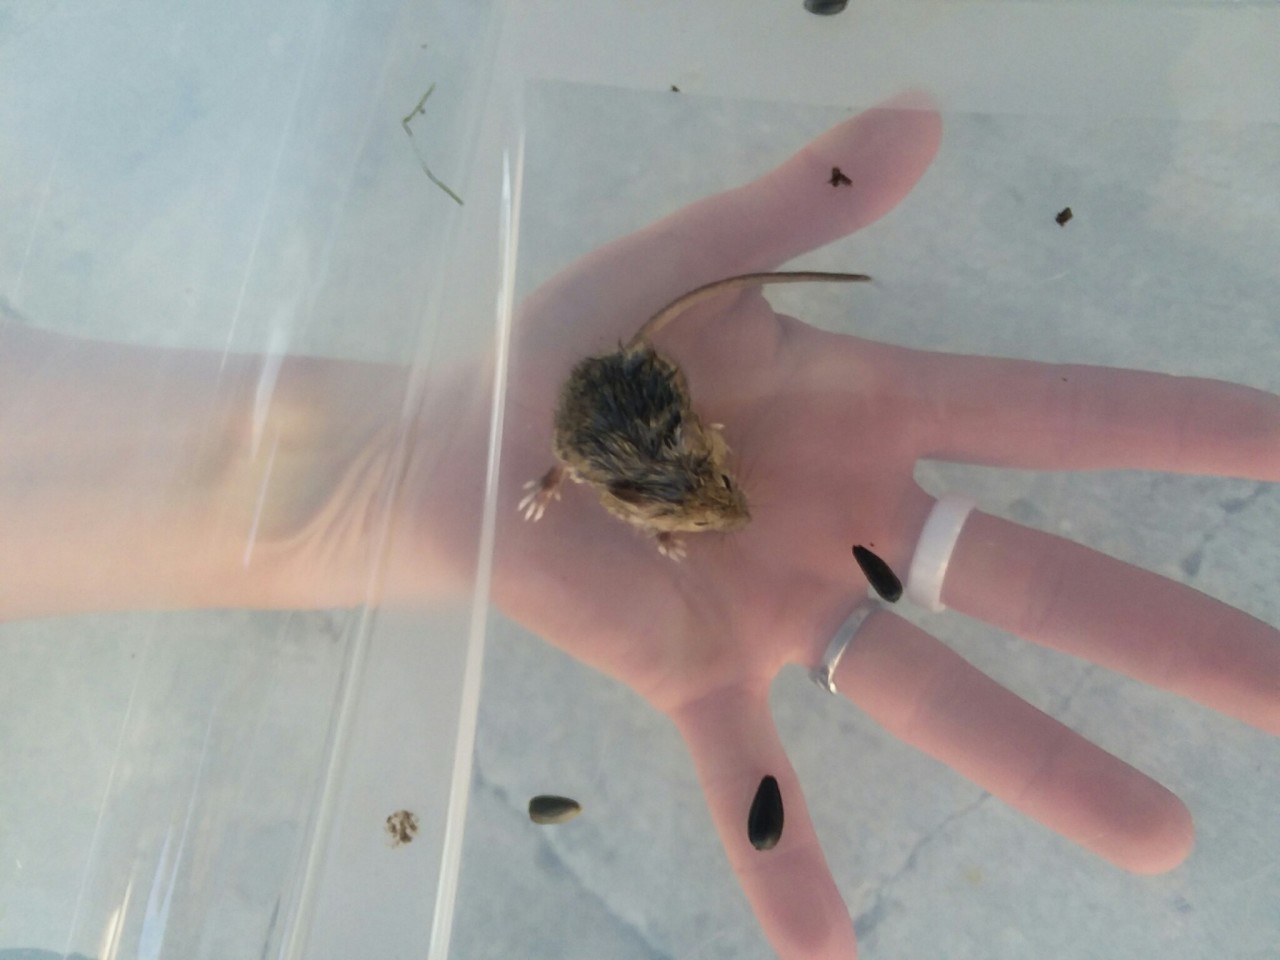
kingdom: Animalia
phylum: Chordata
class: Mammalia
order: Rodentia
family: Muridae
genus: Mus
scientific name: Mus musculus
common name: House mouse
